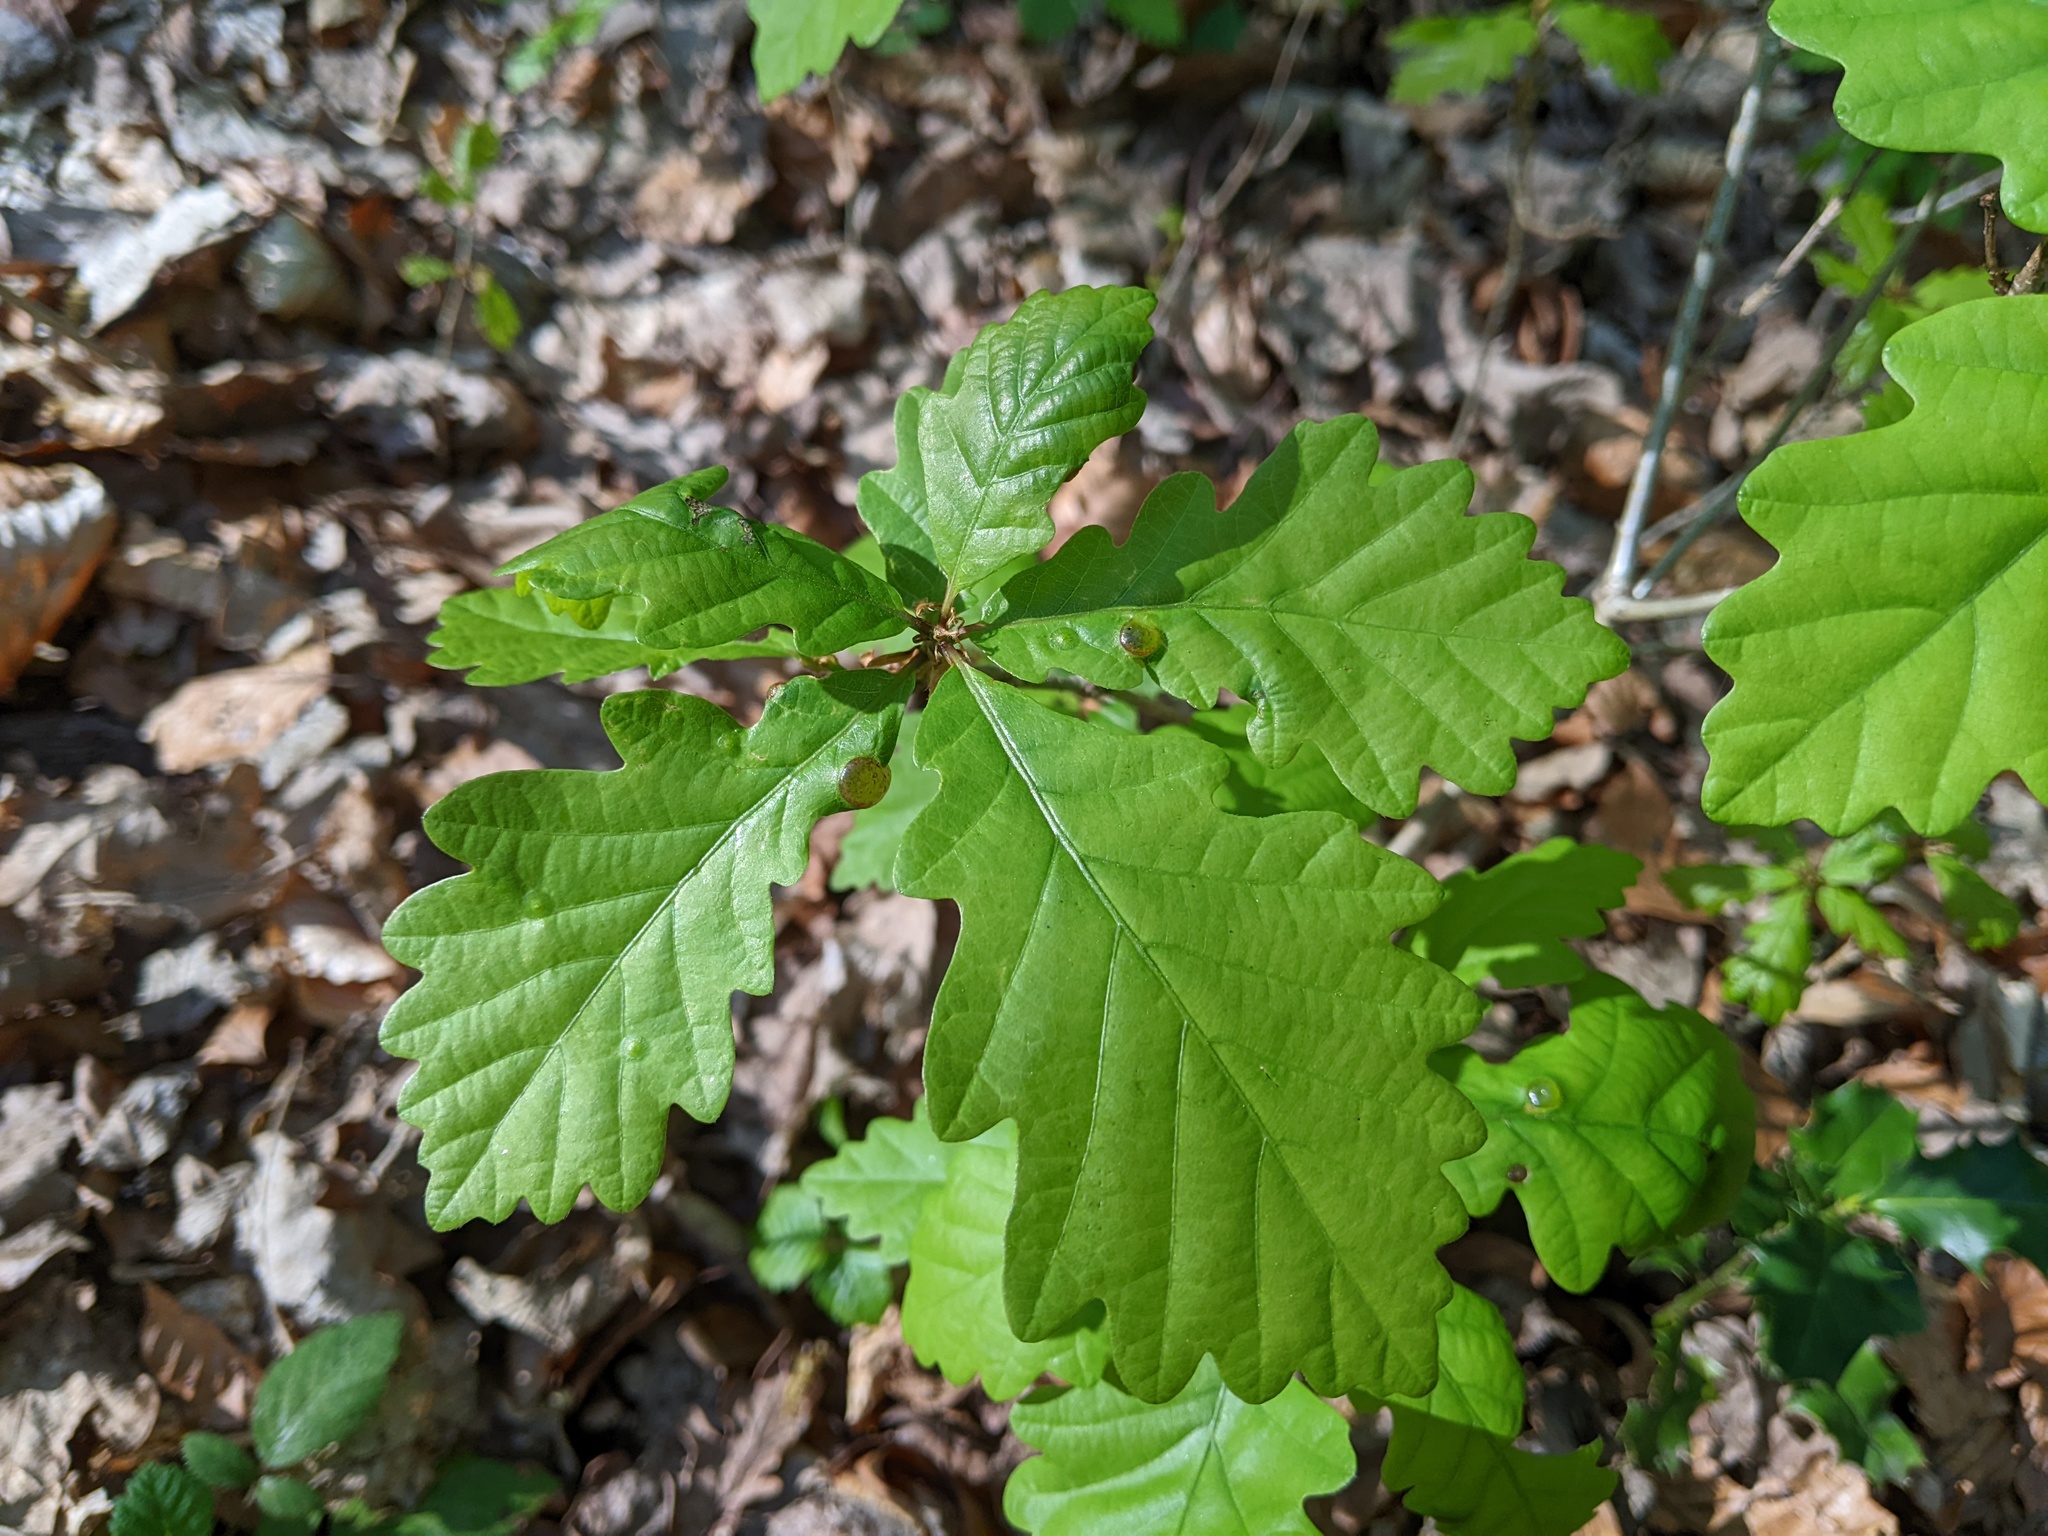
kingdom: Animalia
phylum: Arthropoda
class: Insecta
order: Hymenoptera
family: Cynipidae
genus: Neuroterus
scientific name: Neuroterus quercusbaccarum
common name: Common spangle gall
